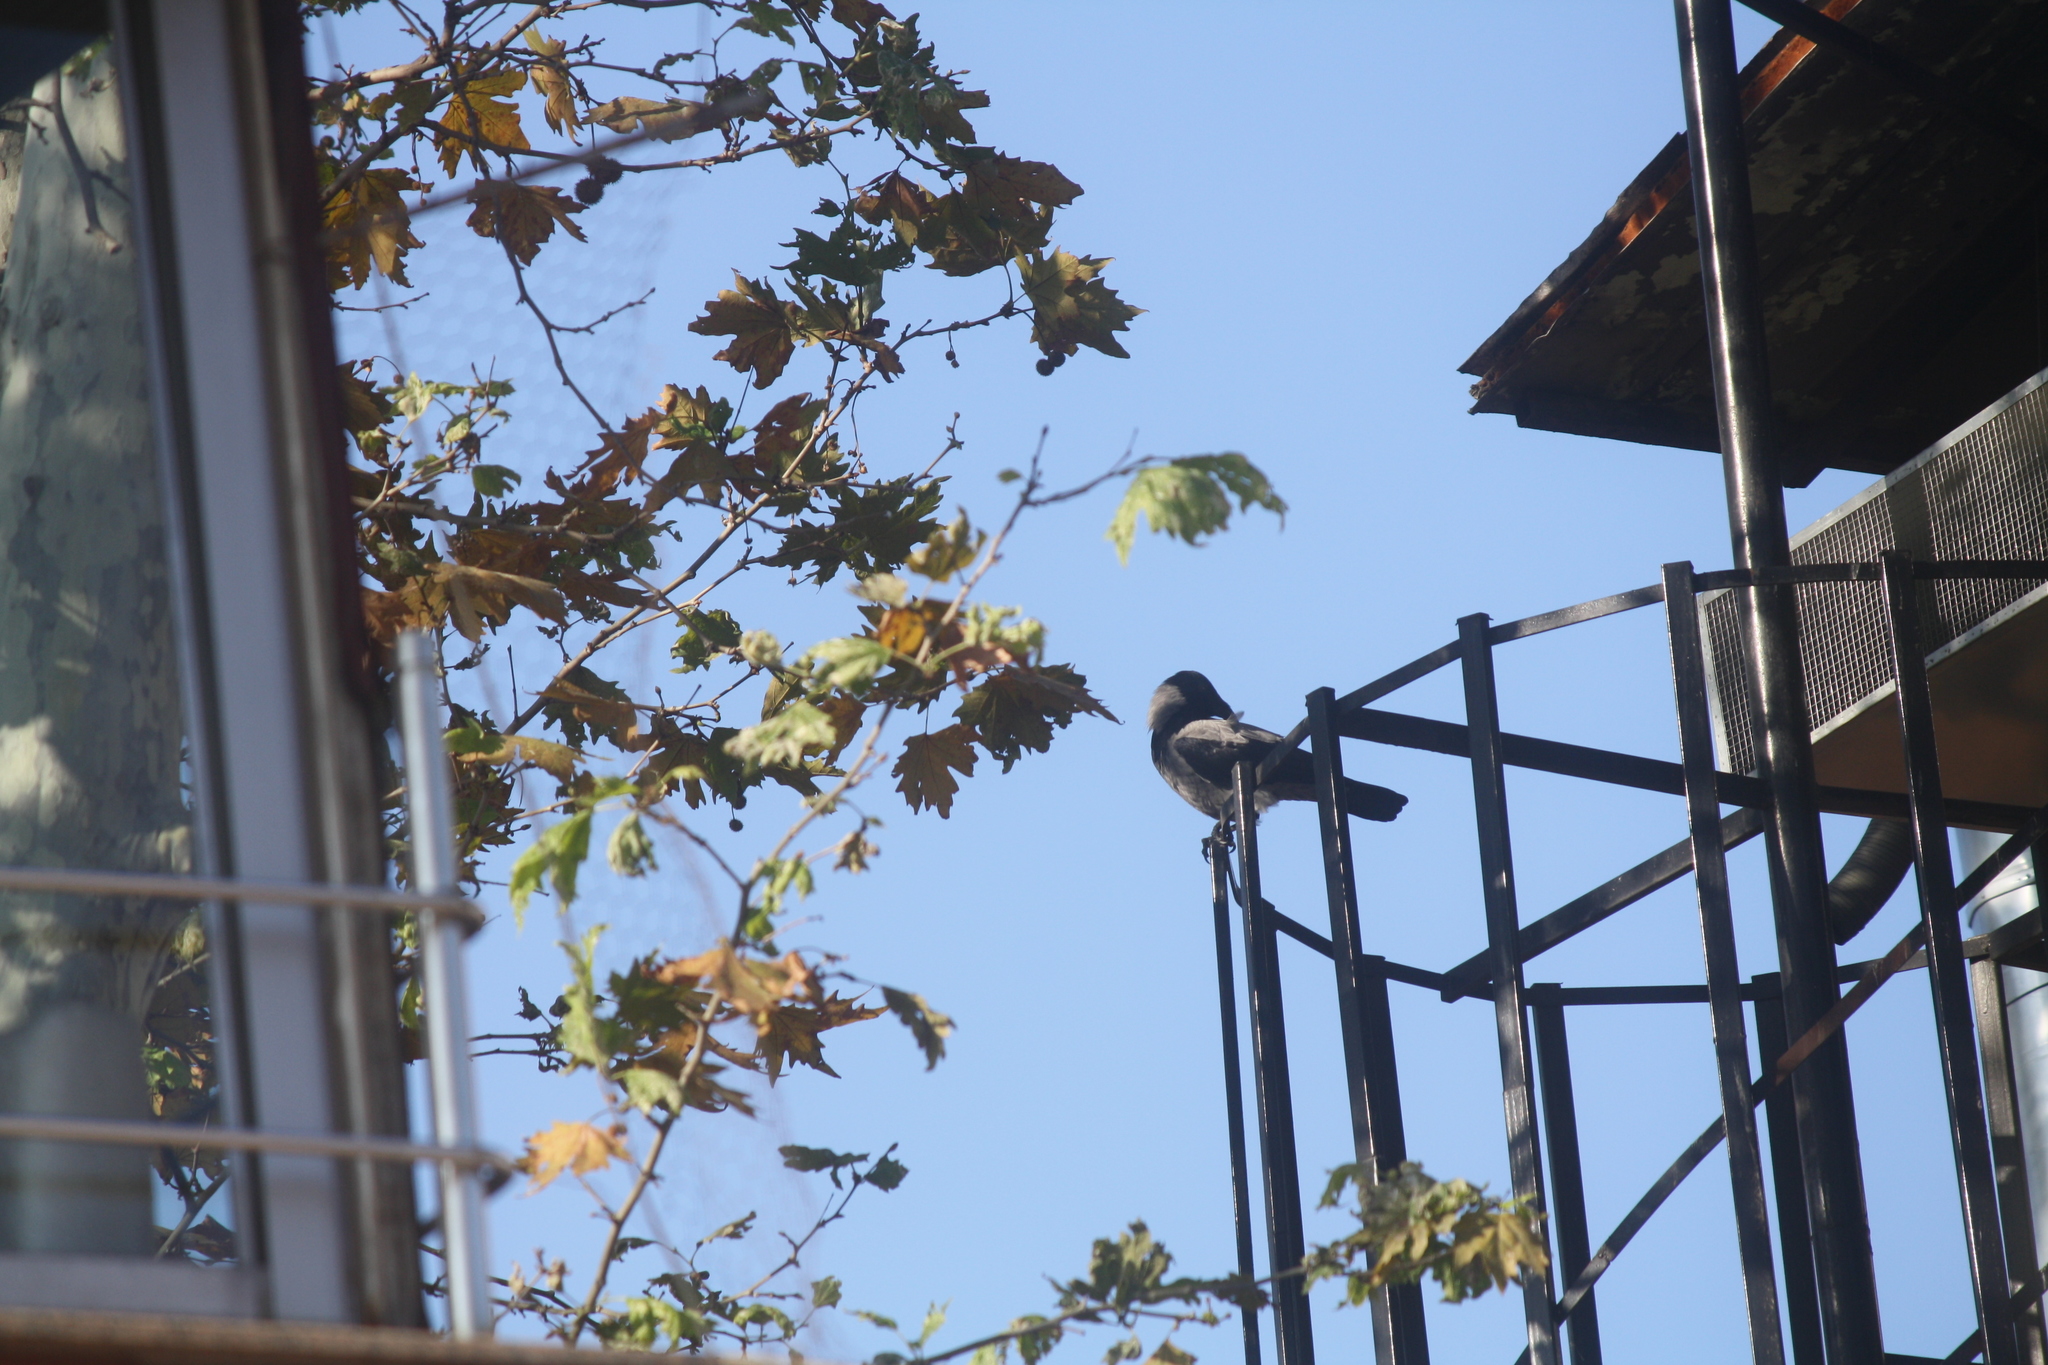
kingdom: Animalia
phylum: Chordata
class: Aves
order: Passeriformes
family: Corvidae
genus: Corvus
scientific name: Corvus cornix
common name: Hooded crow
